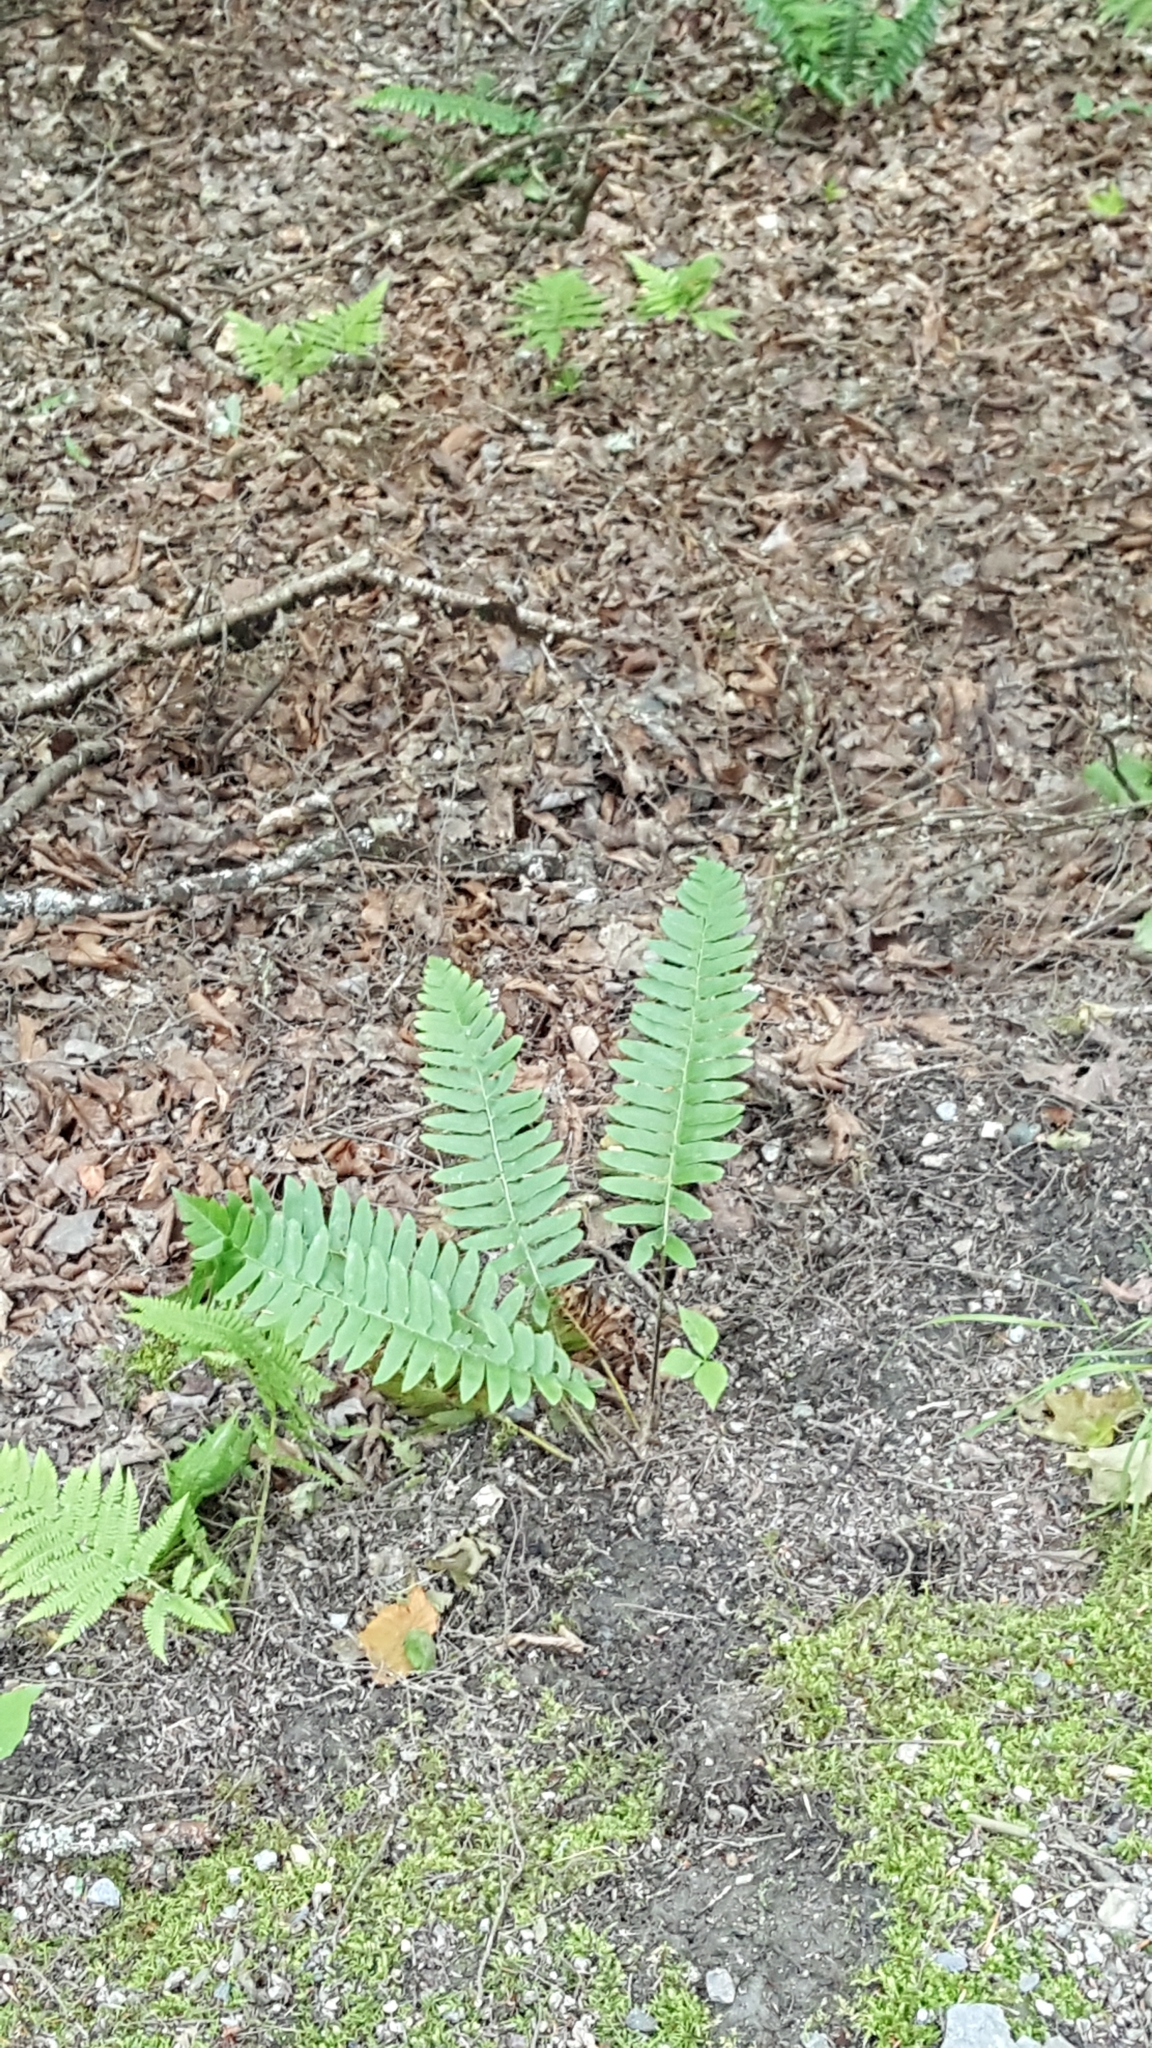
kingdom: Plantae
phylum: Tracheophyta
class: Polypodiopsida
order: Polypodiales
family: Dryopteridaceae
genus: Polystichum
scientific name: Polystichum acrostichoides
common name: Christmas fern
